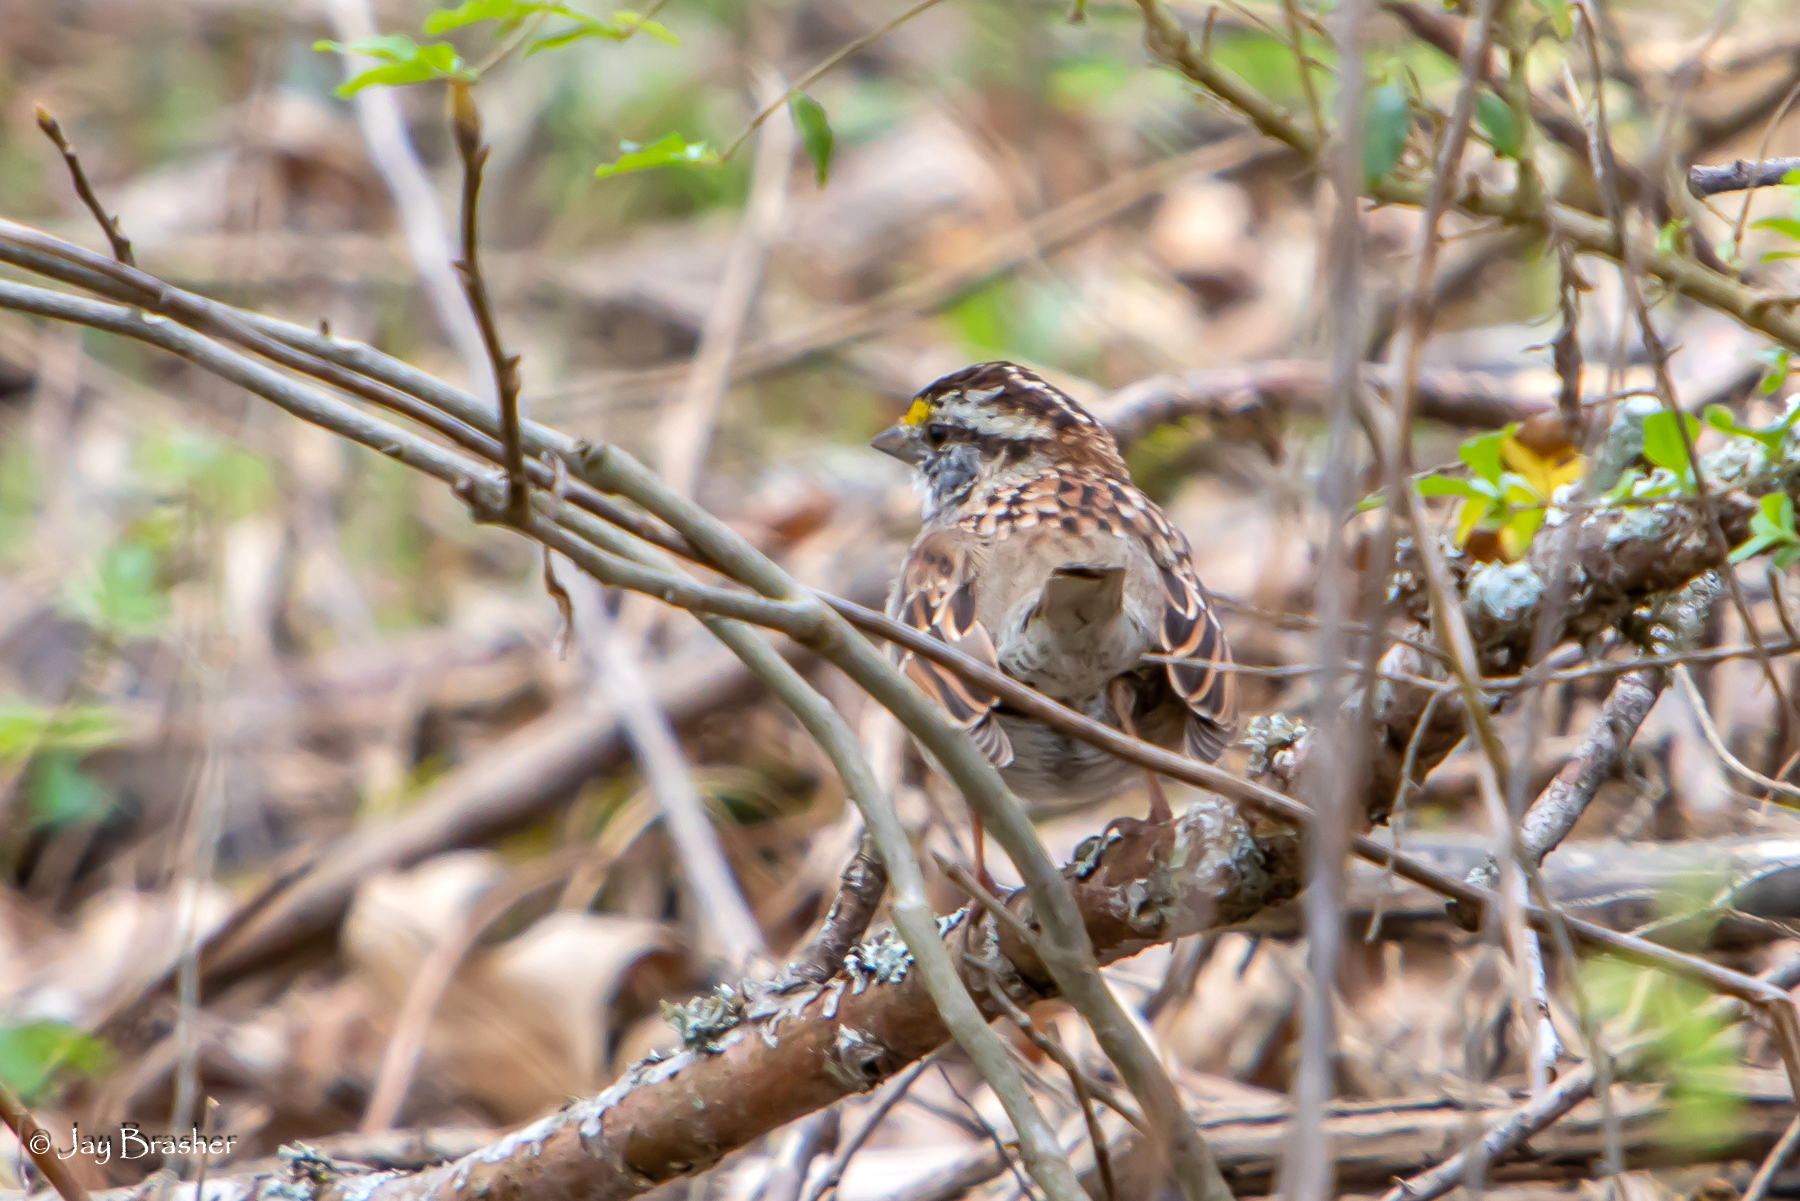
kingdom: Animalia
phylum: Chordata
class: Aves
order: Passeriformes
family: Passerellidae
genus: Zonotrichia
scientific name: Zonotrichia albicollis
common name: White-throated sparrow
